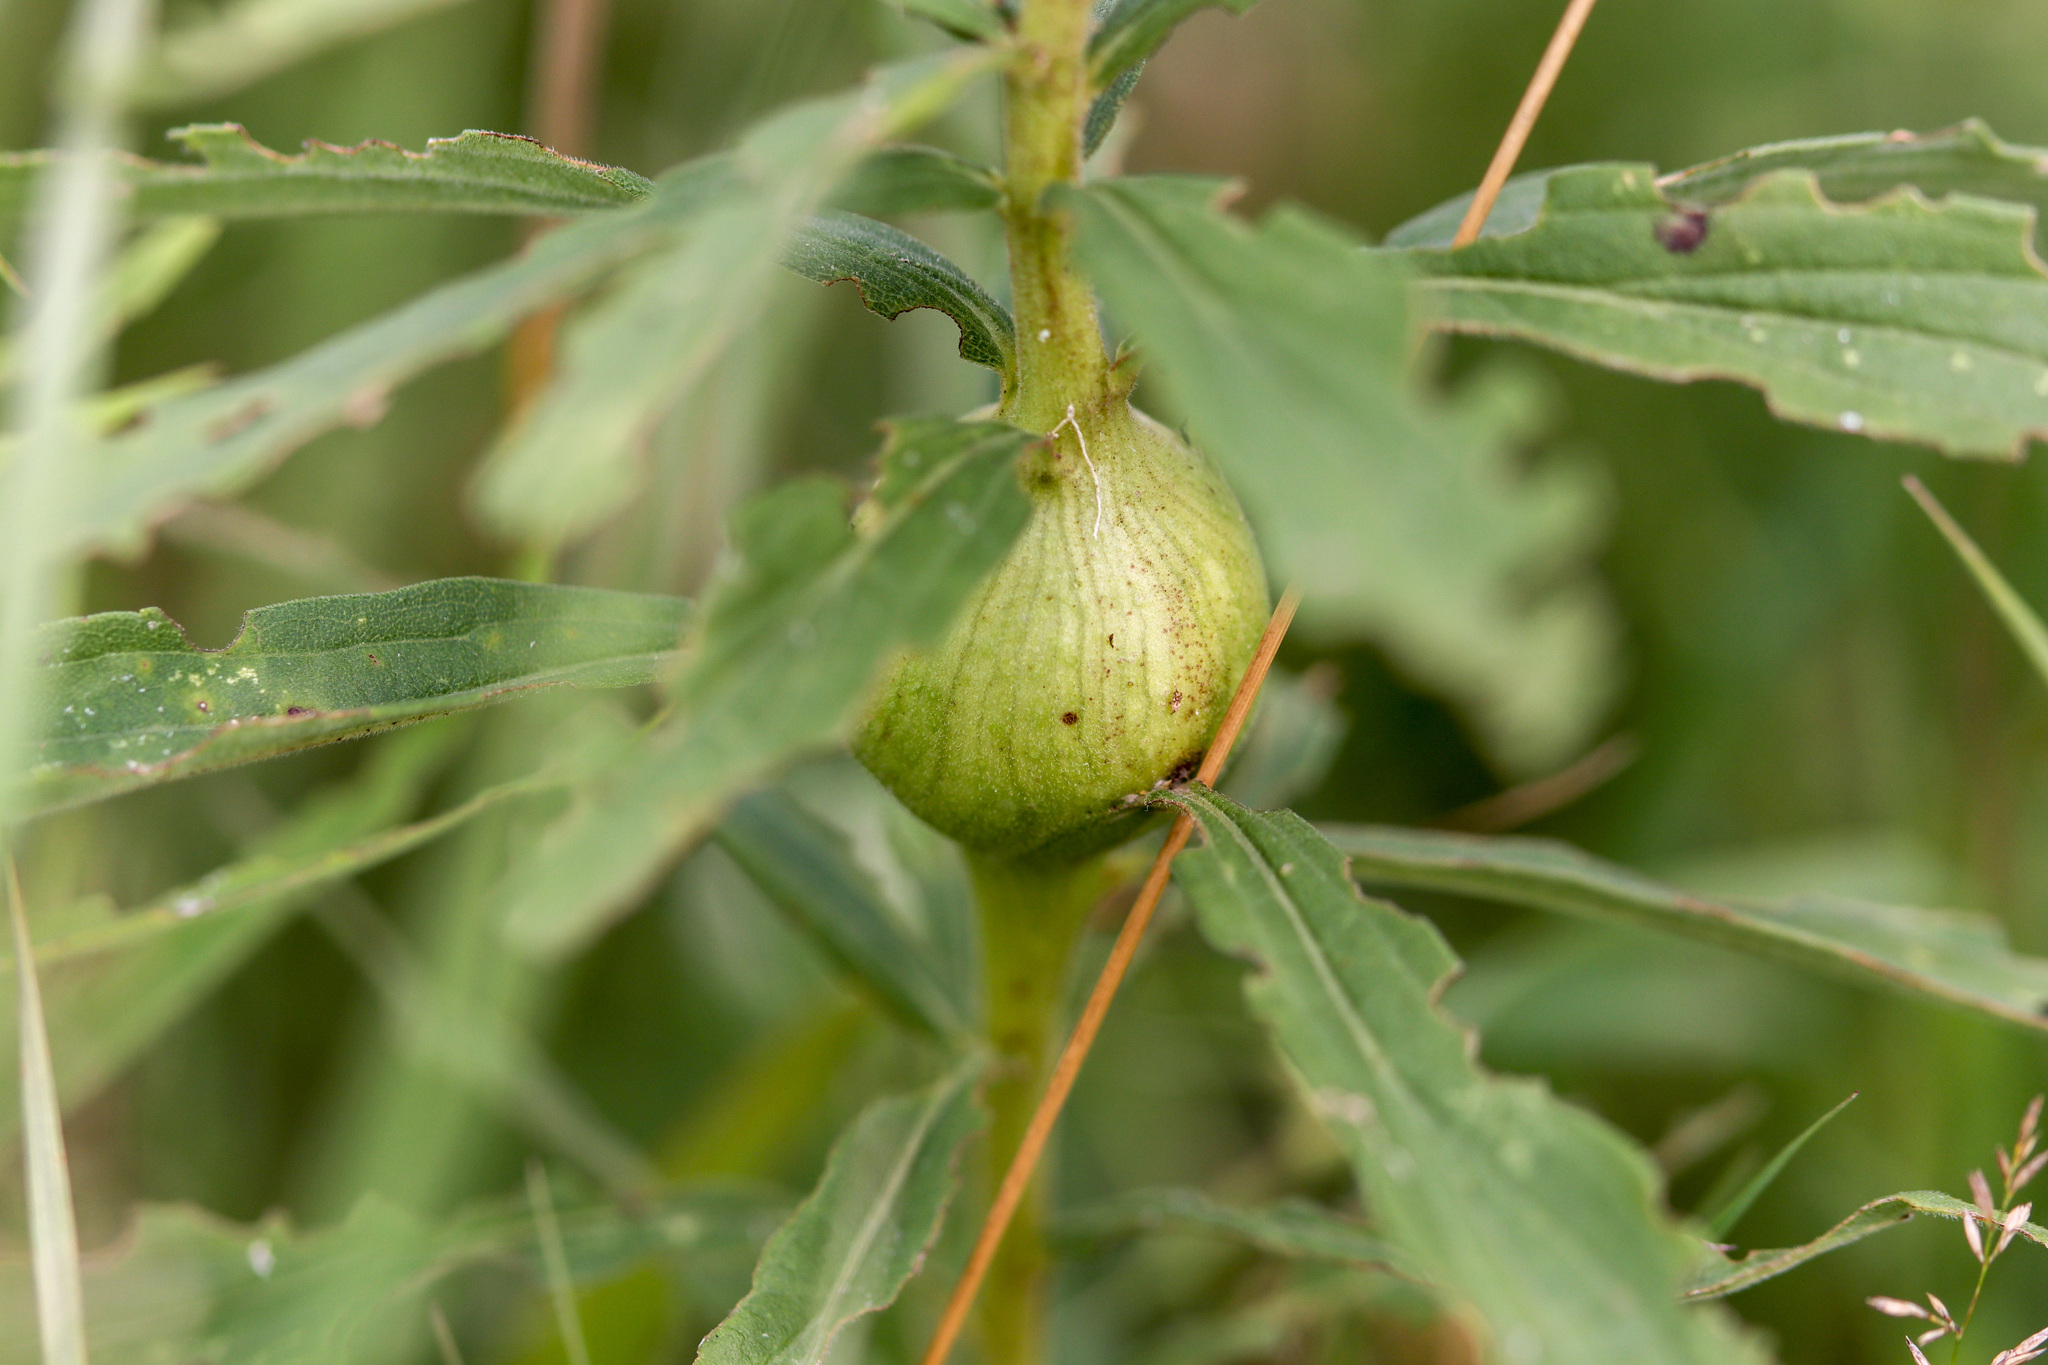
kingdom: Animalia
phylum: Arthropoda
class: Insecta
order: Diptera
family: Tephritidae
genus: Eurosta
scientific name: Eurosta solidaginis
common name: Goldenrod gall fly
